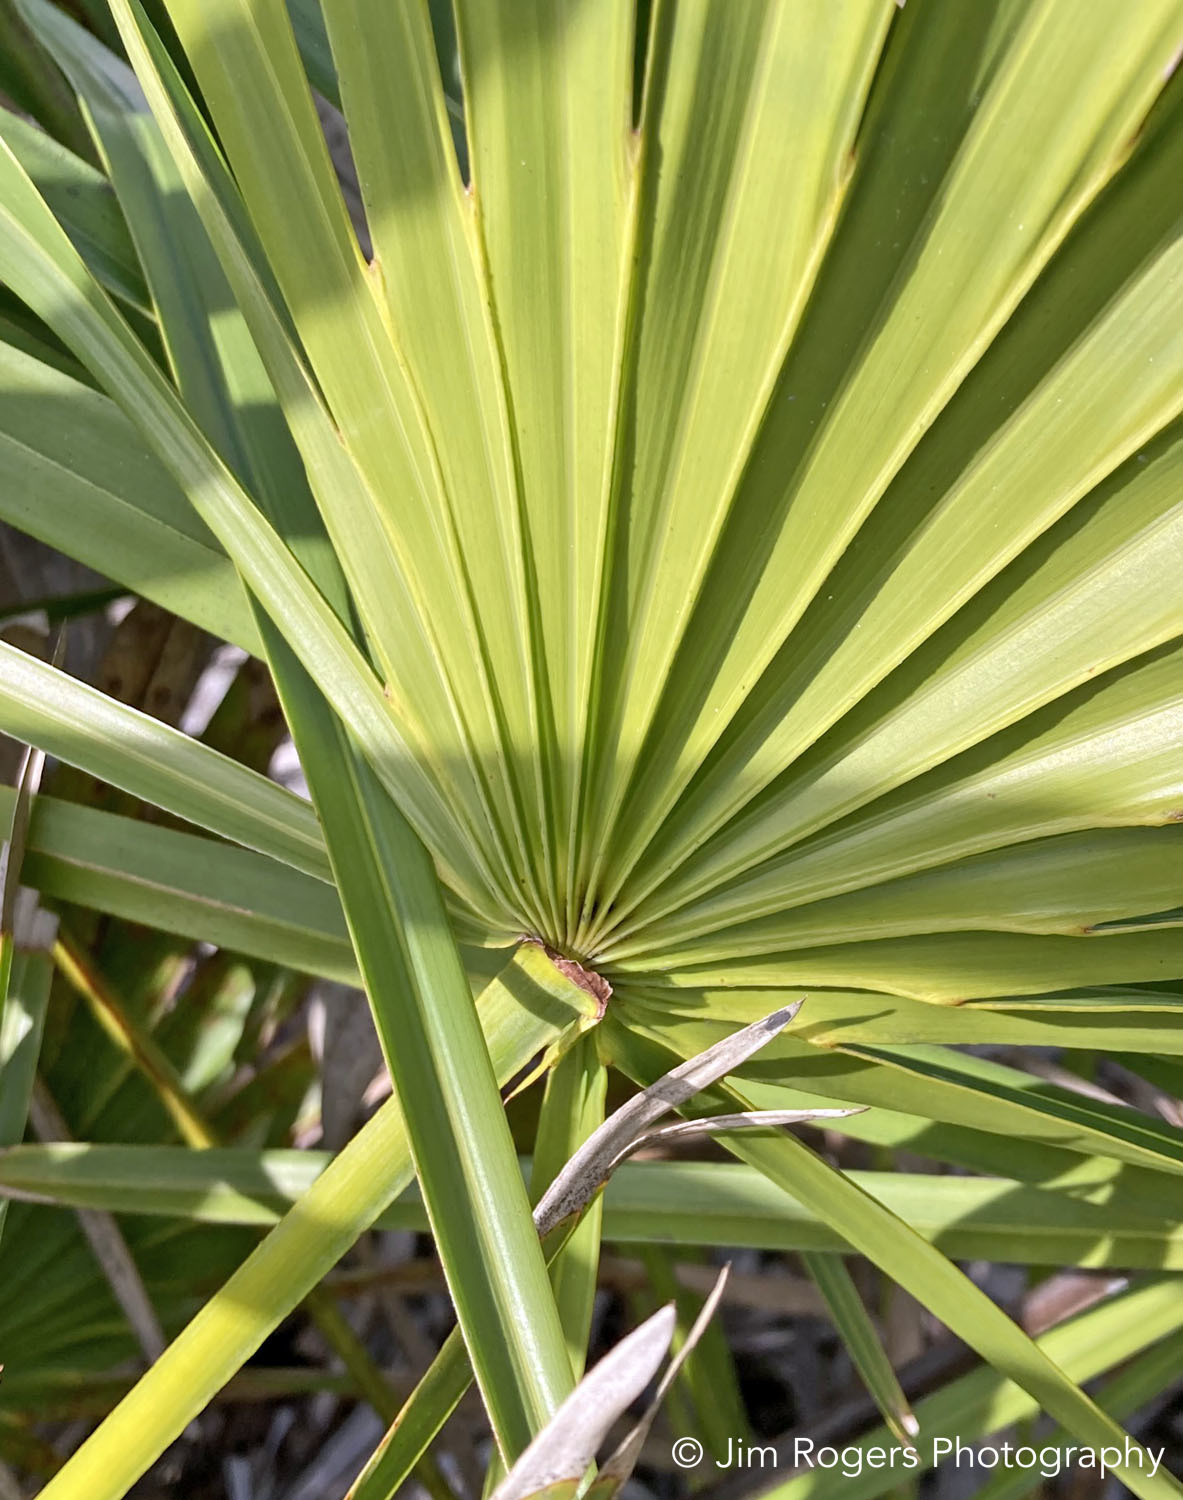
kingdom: Plantae
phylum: Tracheophyta
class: Liliopsida
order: Arecales
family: Arecaceae
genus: Serenoa
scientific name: Serenoa repens
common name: Saw-palmetto
